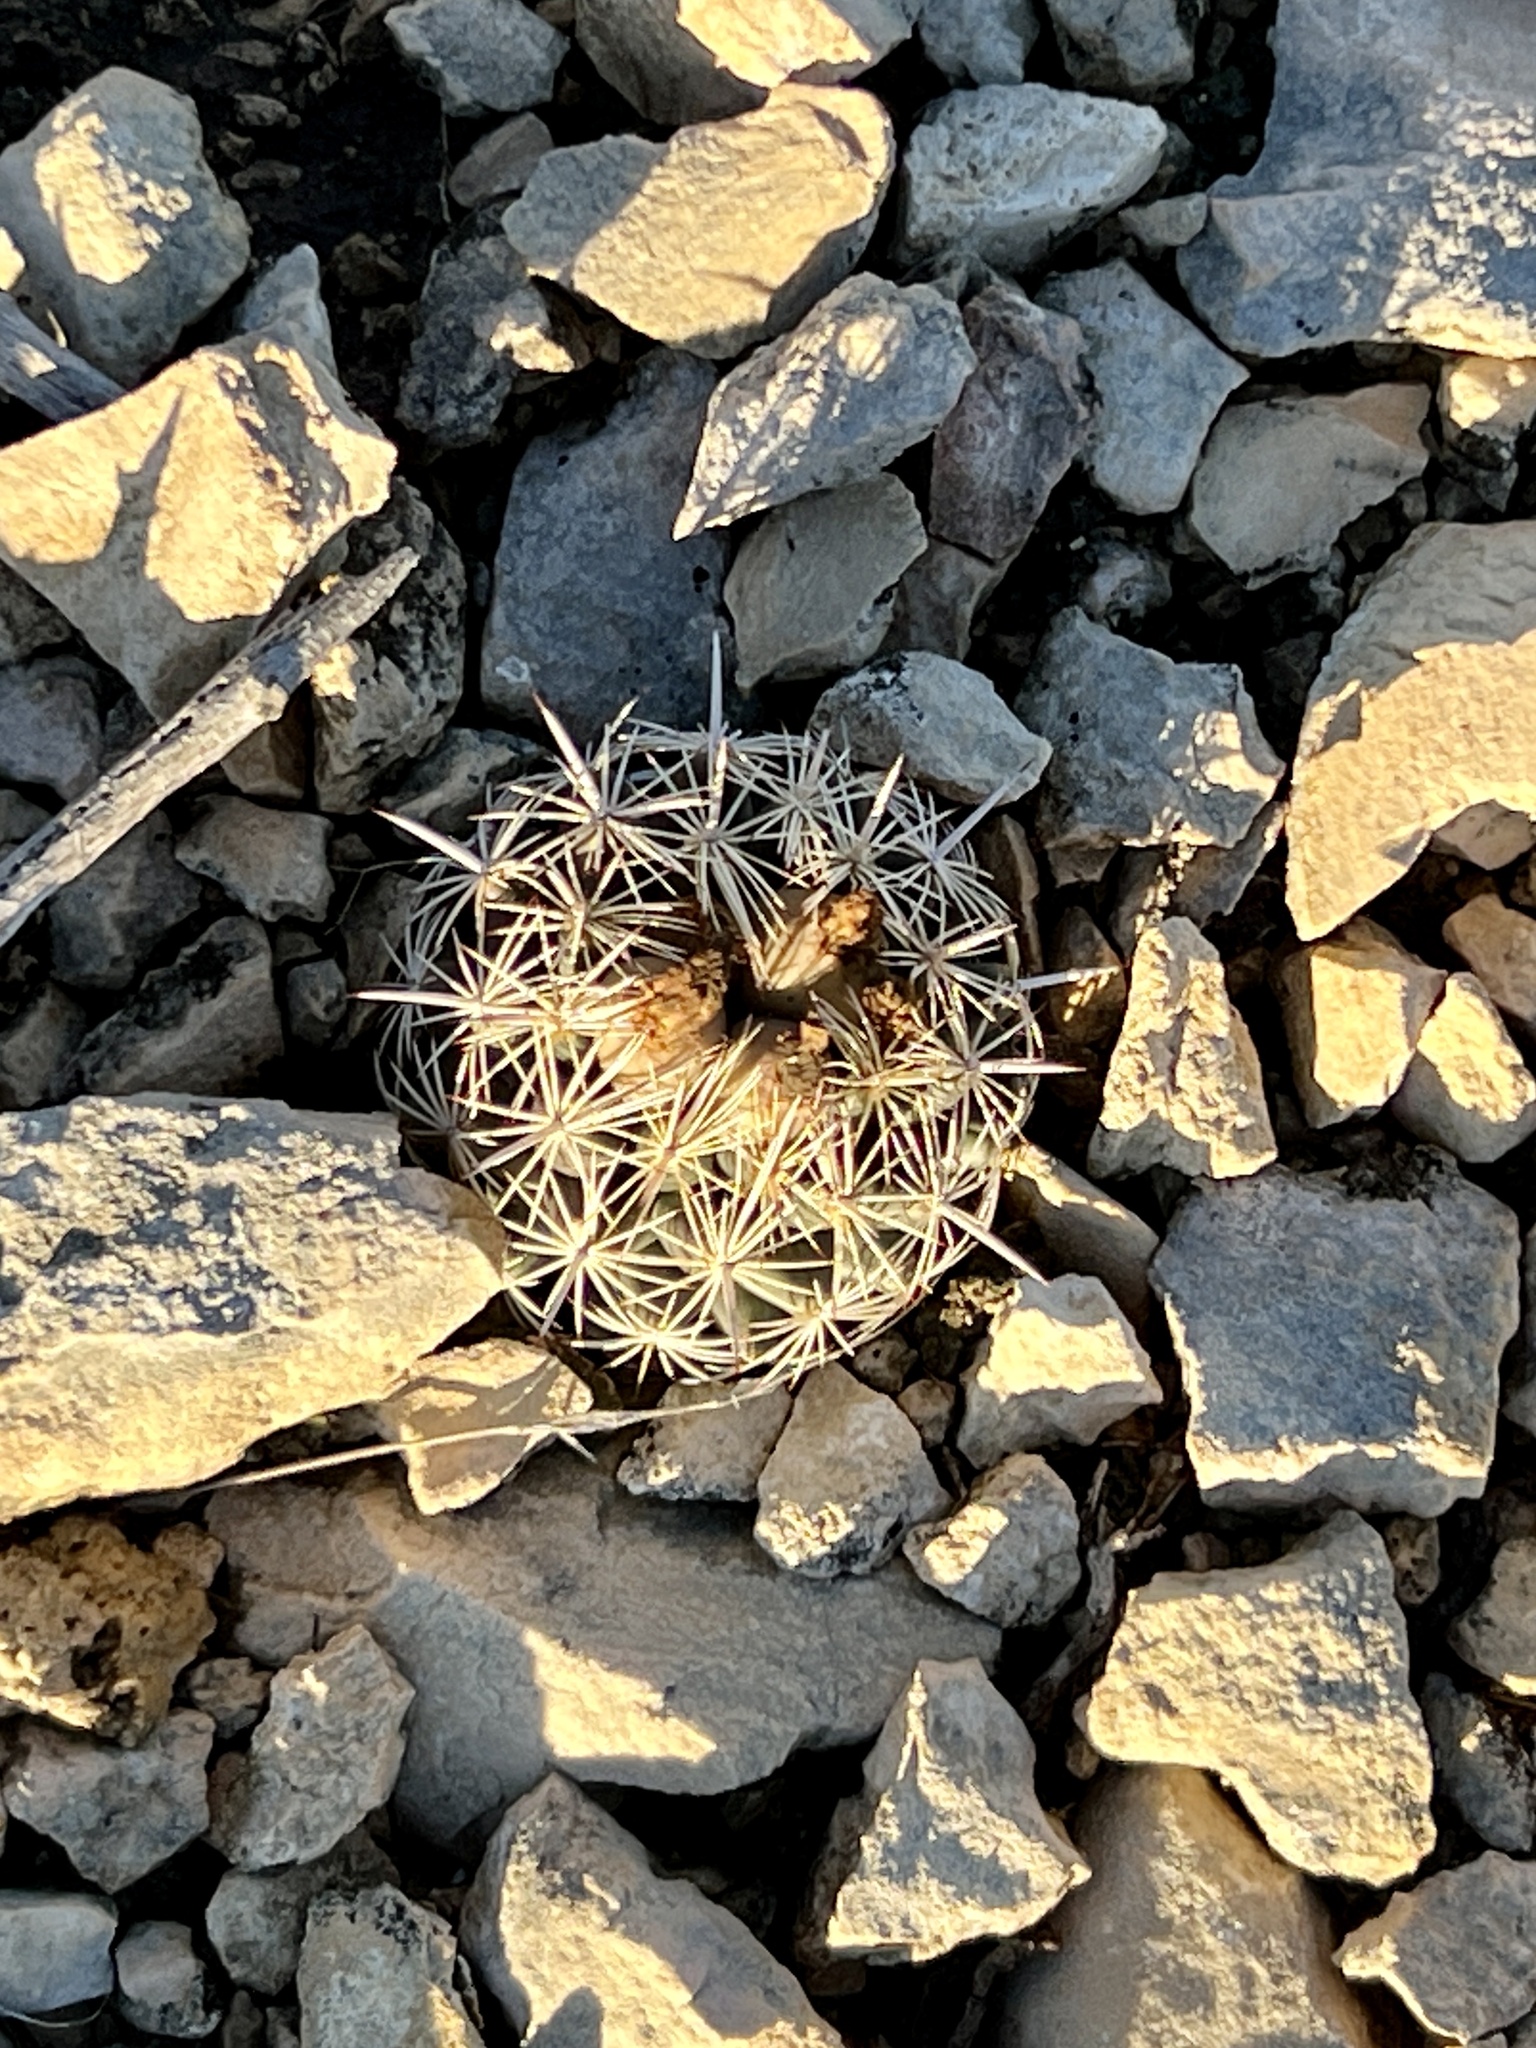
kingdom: Plantae
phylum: Tracheophyta
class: Magnoliopsida
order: Caryophyllales
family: Cactaceae
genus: Coryphantha
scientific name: Coryphantha echinus
